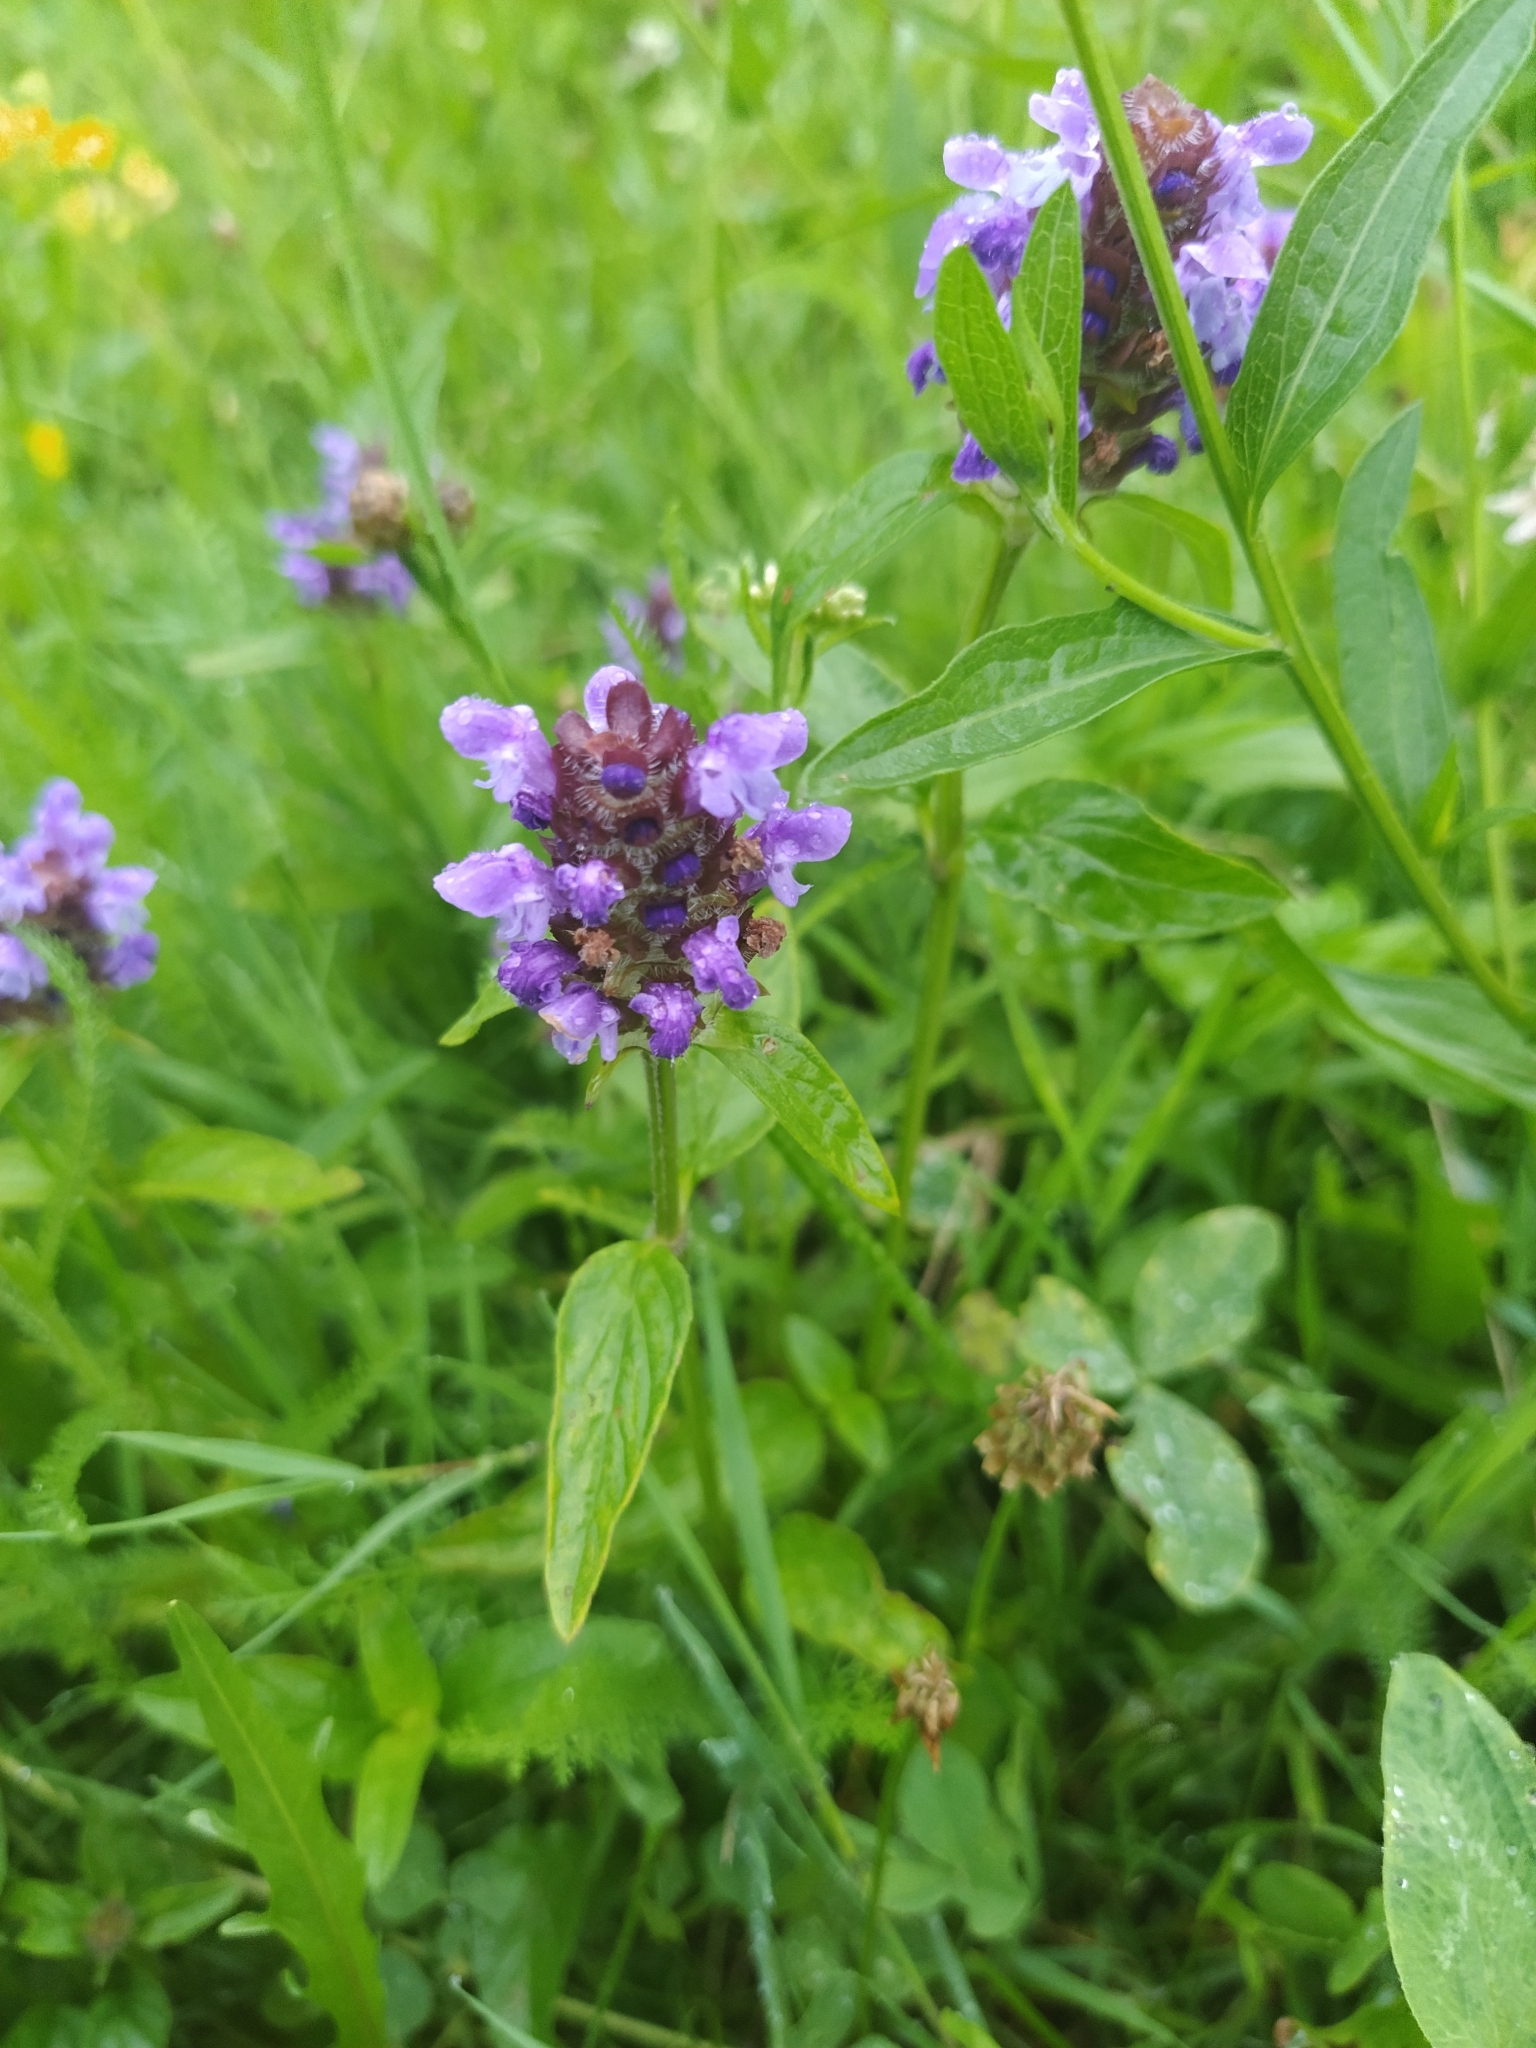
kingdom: Plantae
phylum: Tracheophyta
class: Magnoliopsida
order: Lamiales
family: Lamiaceae
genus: Prunella
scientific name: Prunella vulgaris
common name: Heal-all
